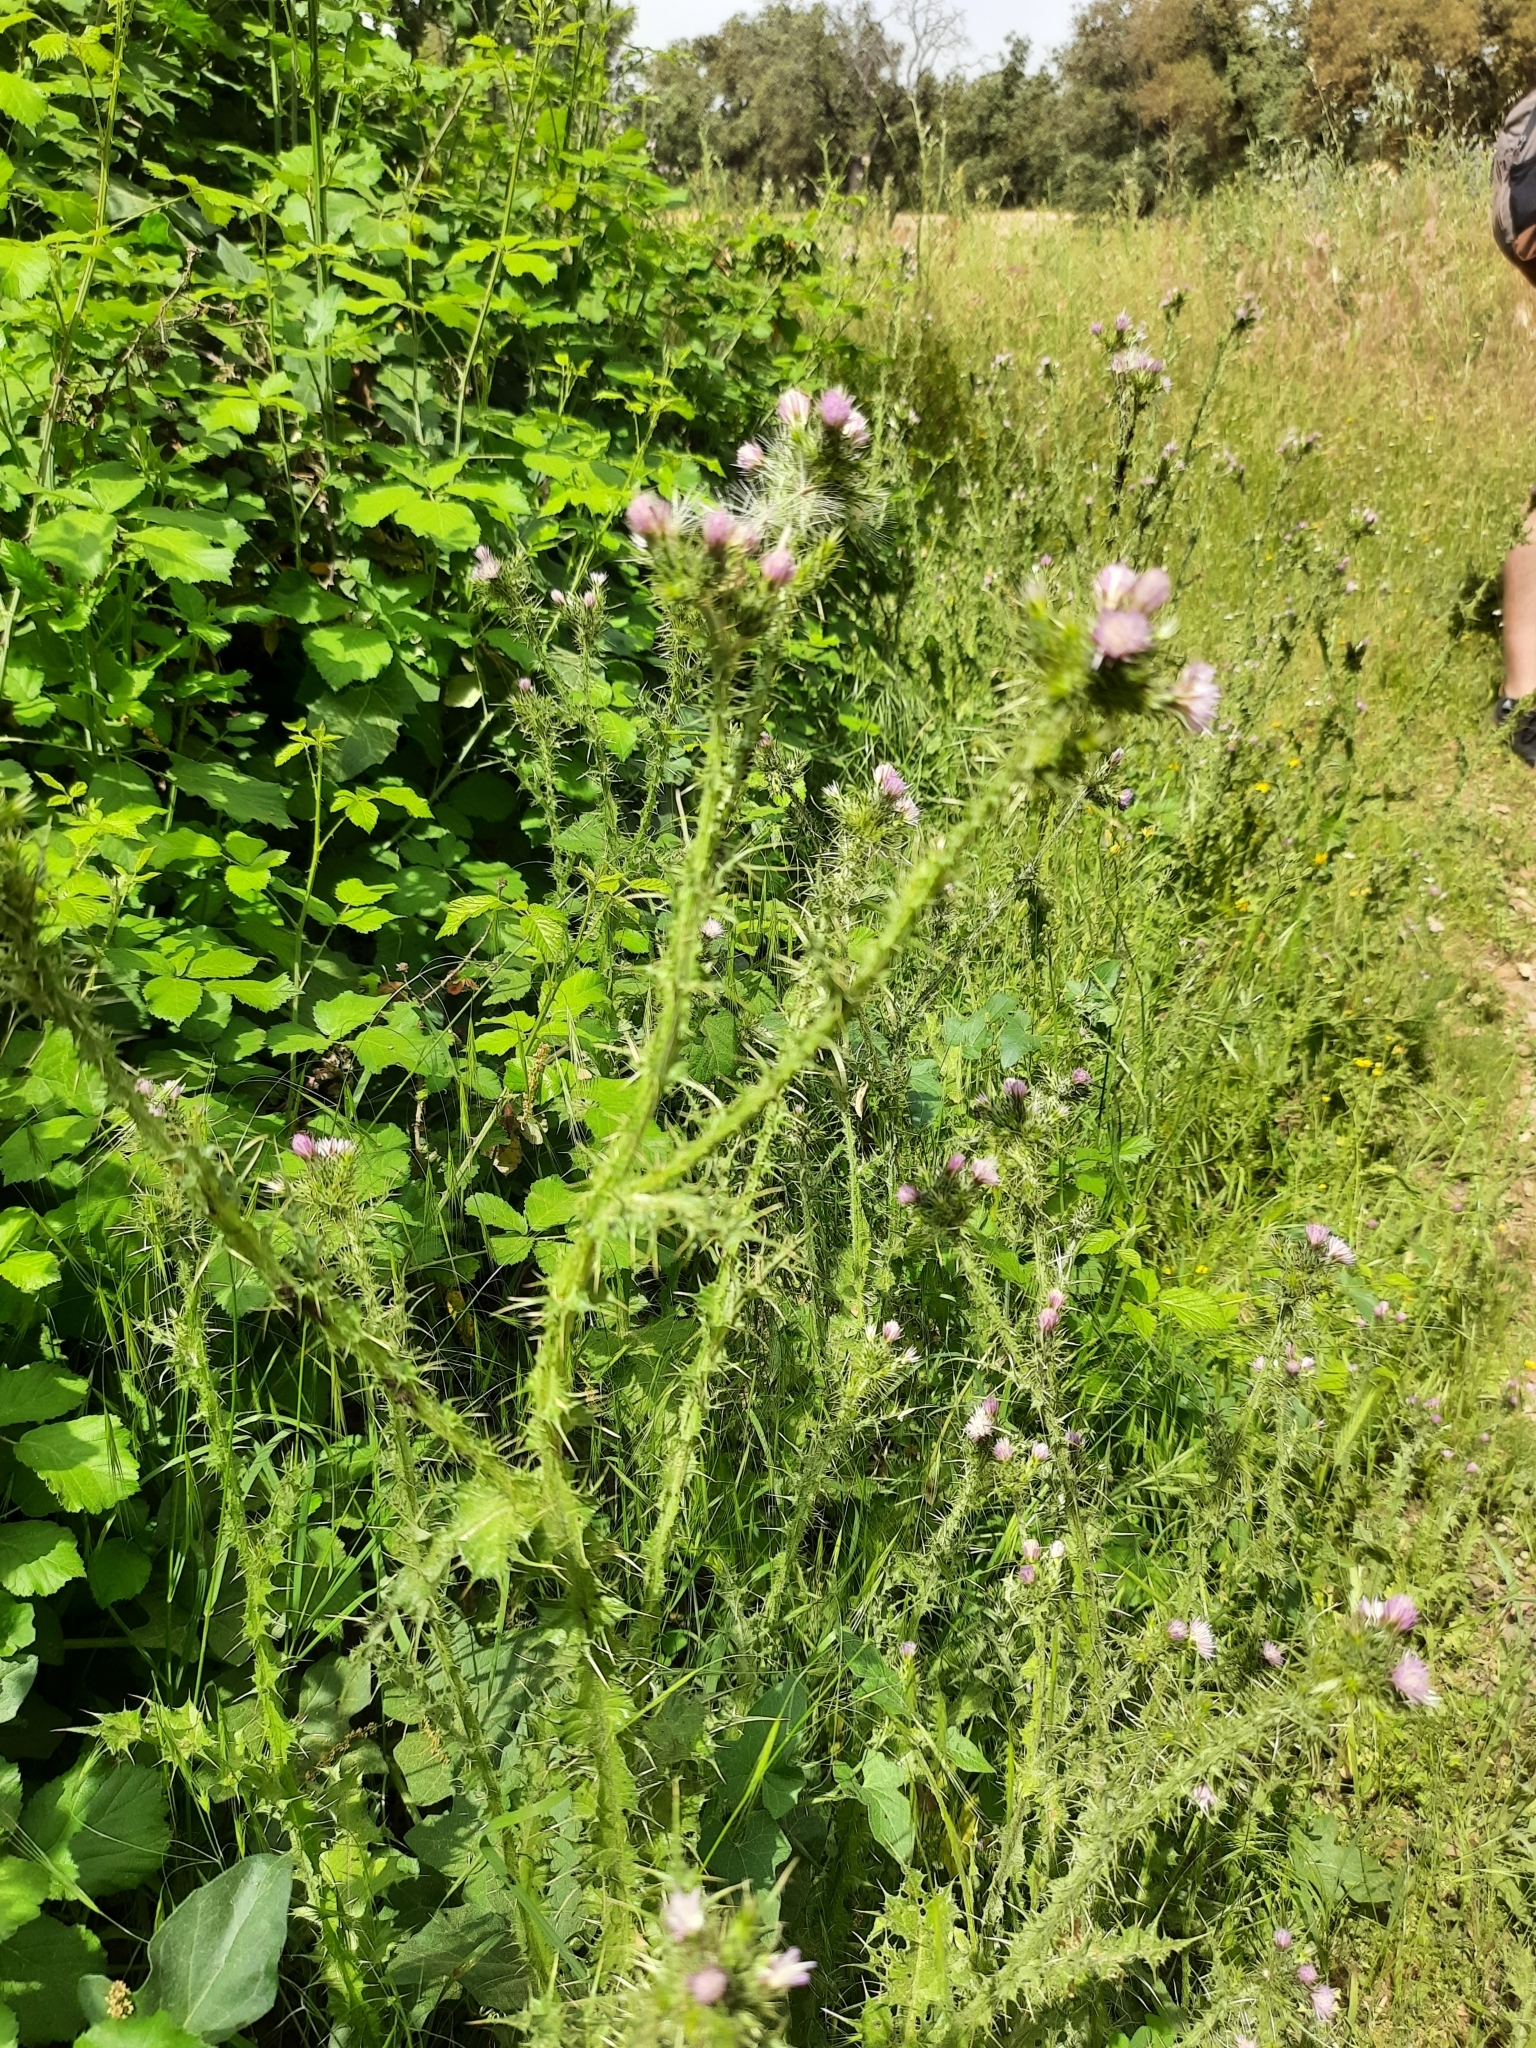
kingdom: Plantae
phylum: Tracheophyta
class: Magnoliopsida
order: Asterales
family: Asteraceae
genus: Carduus
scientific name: Carduus tenuiflorus
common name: Slender thistle
